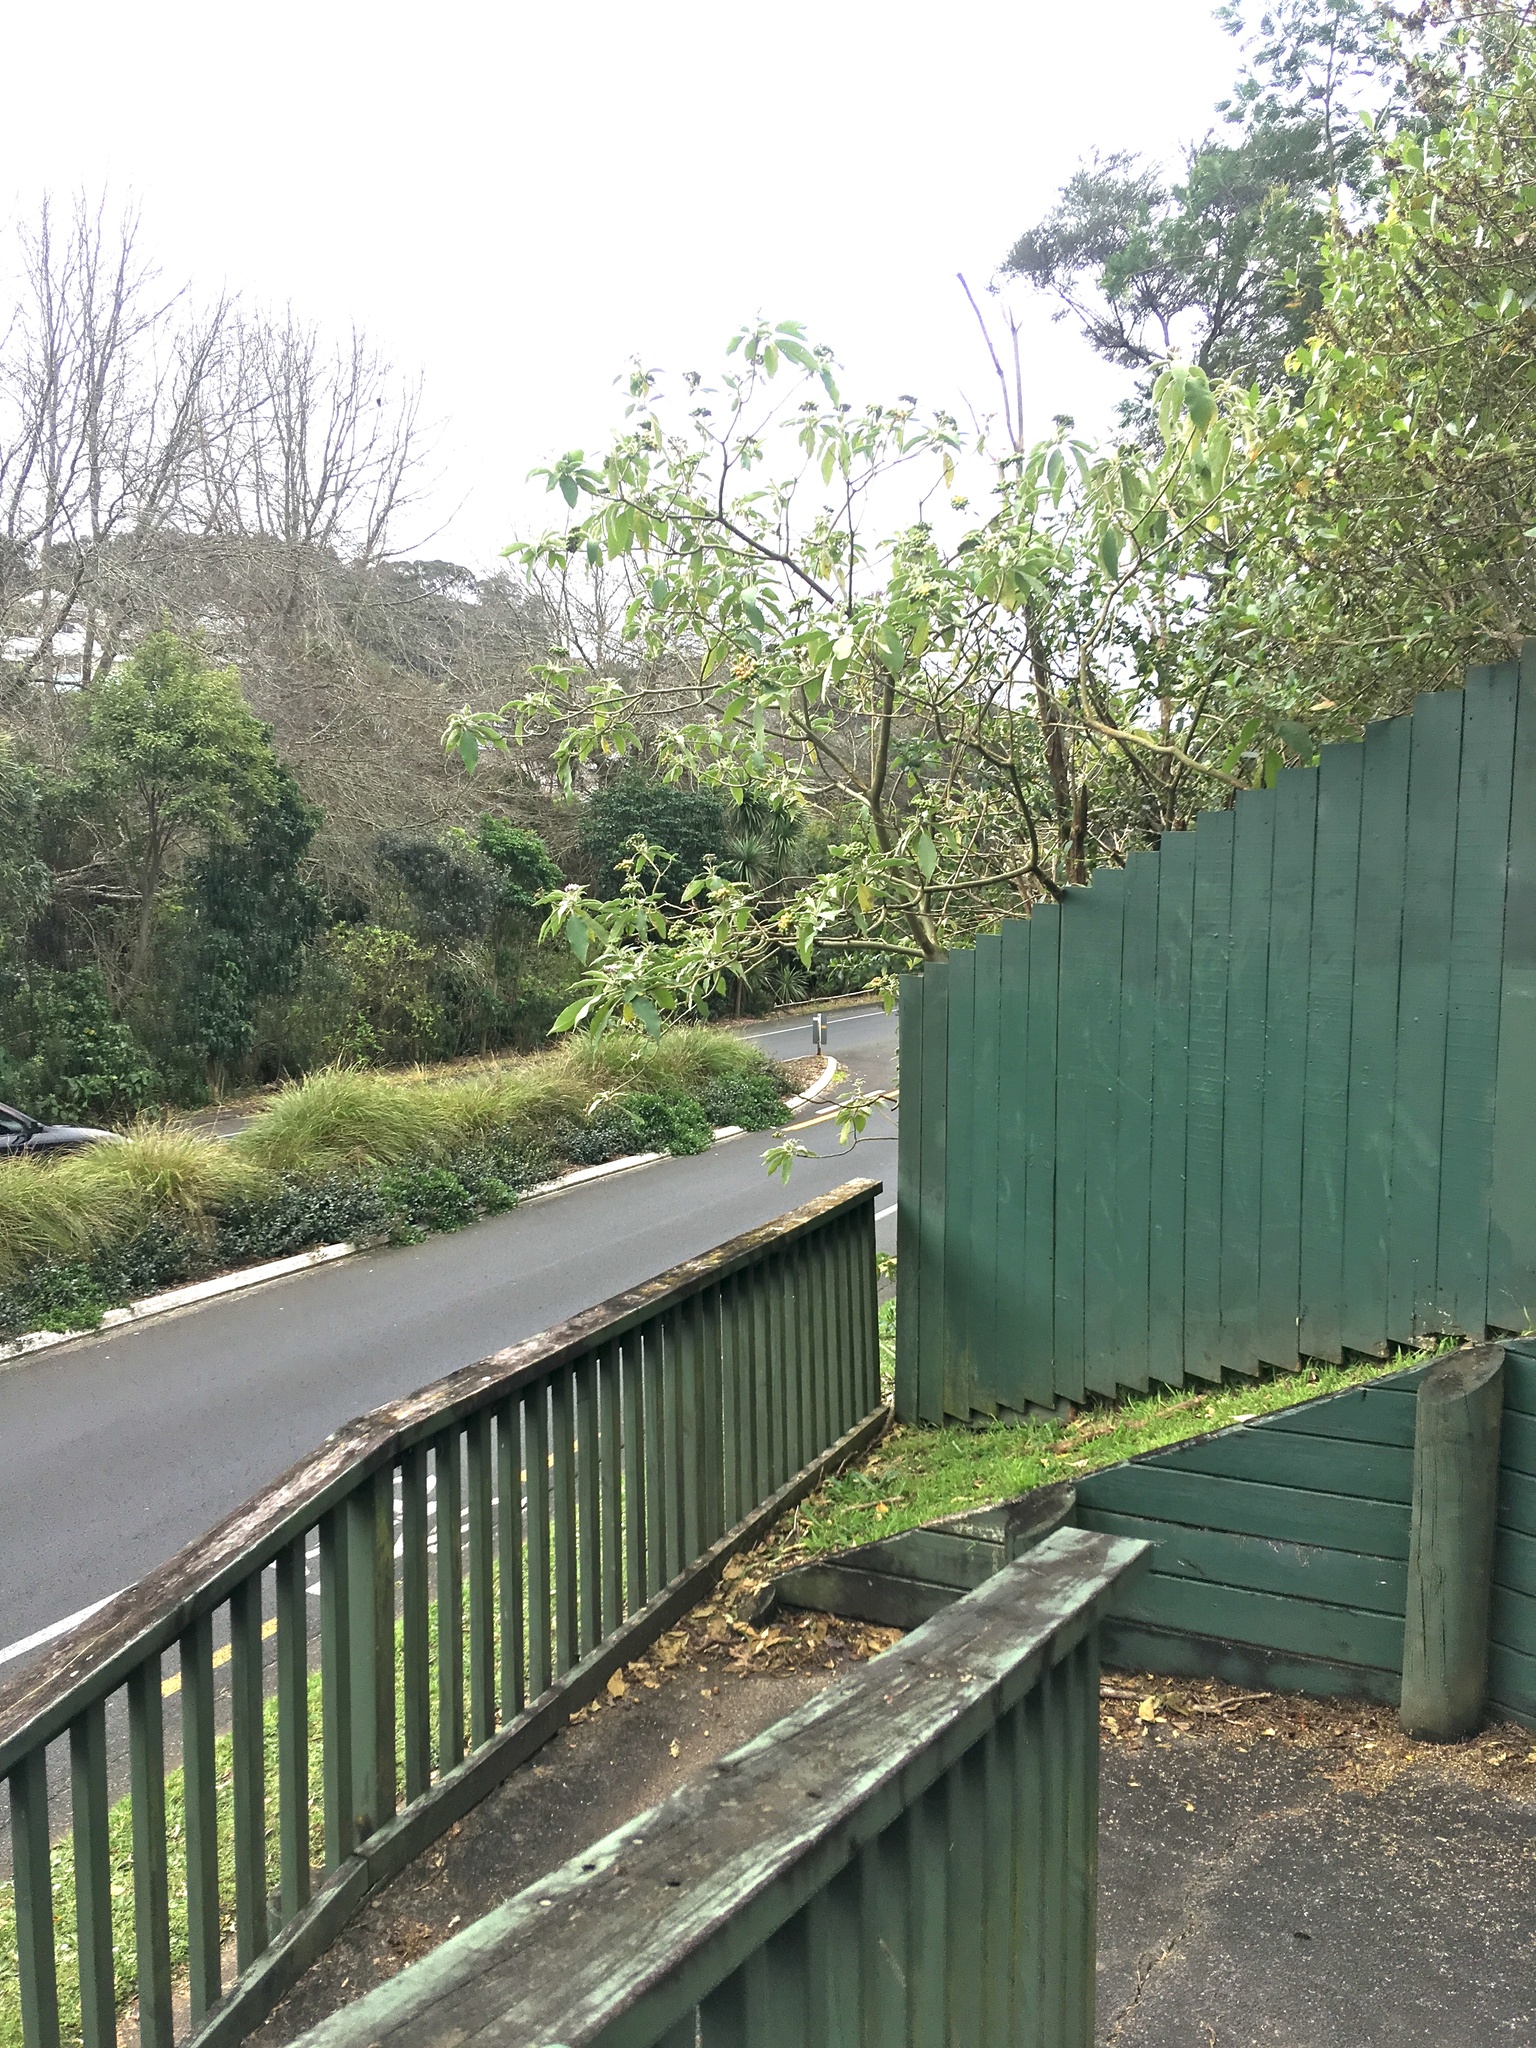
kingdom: Plantae
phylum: Tracheophyta
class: Magnoliopsida
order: Solanales
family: Solanaceae
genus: Solanum
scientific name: Solanum mauritianum
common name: Earleaf nightshade
